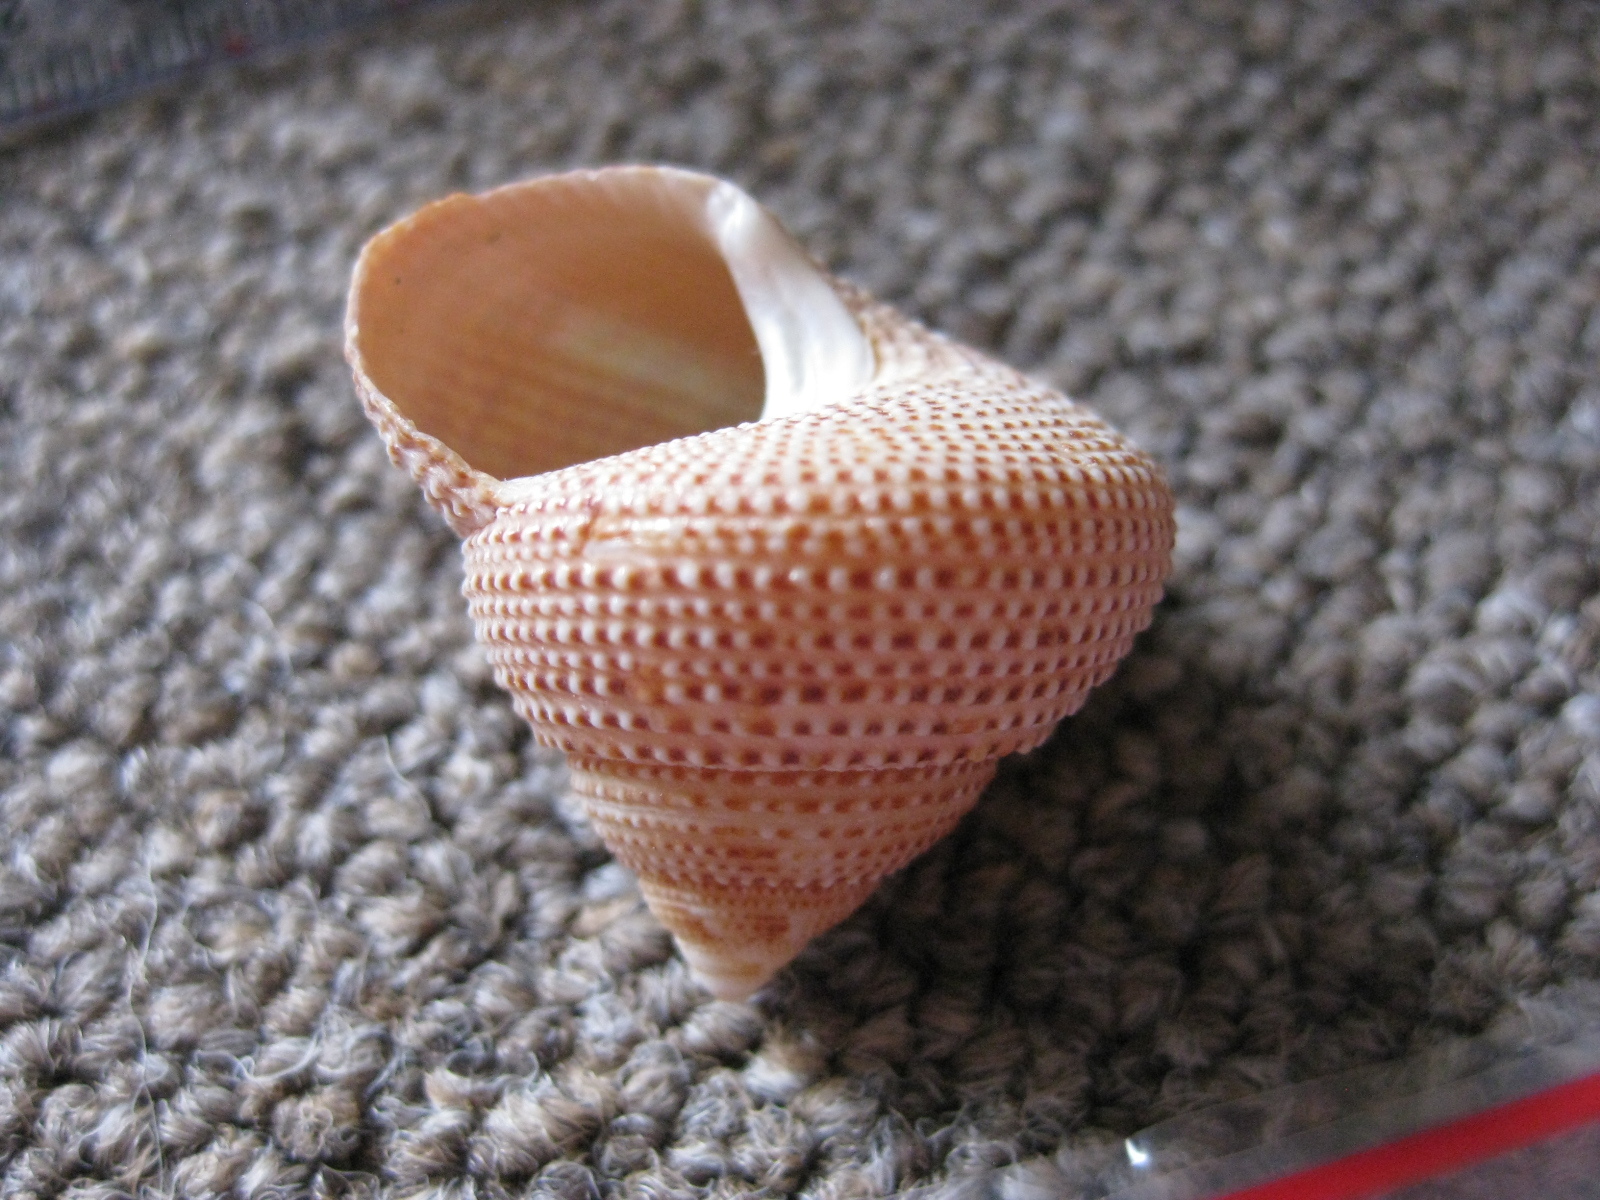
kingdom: Animalia
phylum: Mollusca
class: Gastropoda
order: Trochida
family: Calliostomatidae
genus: Maurea
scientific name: Maurea granti
